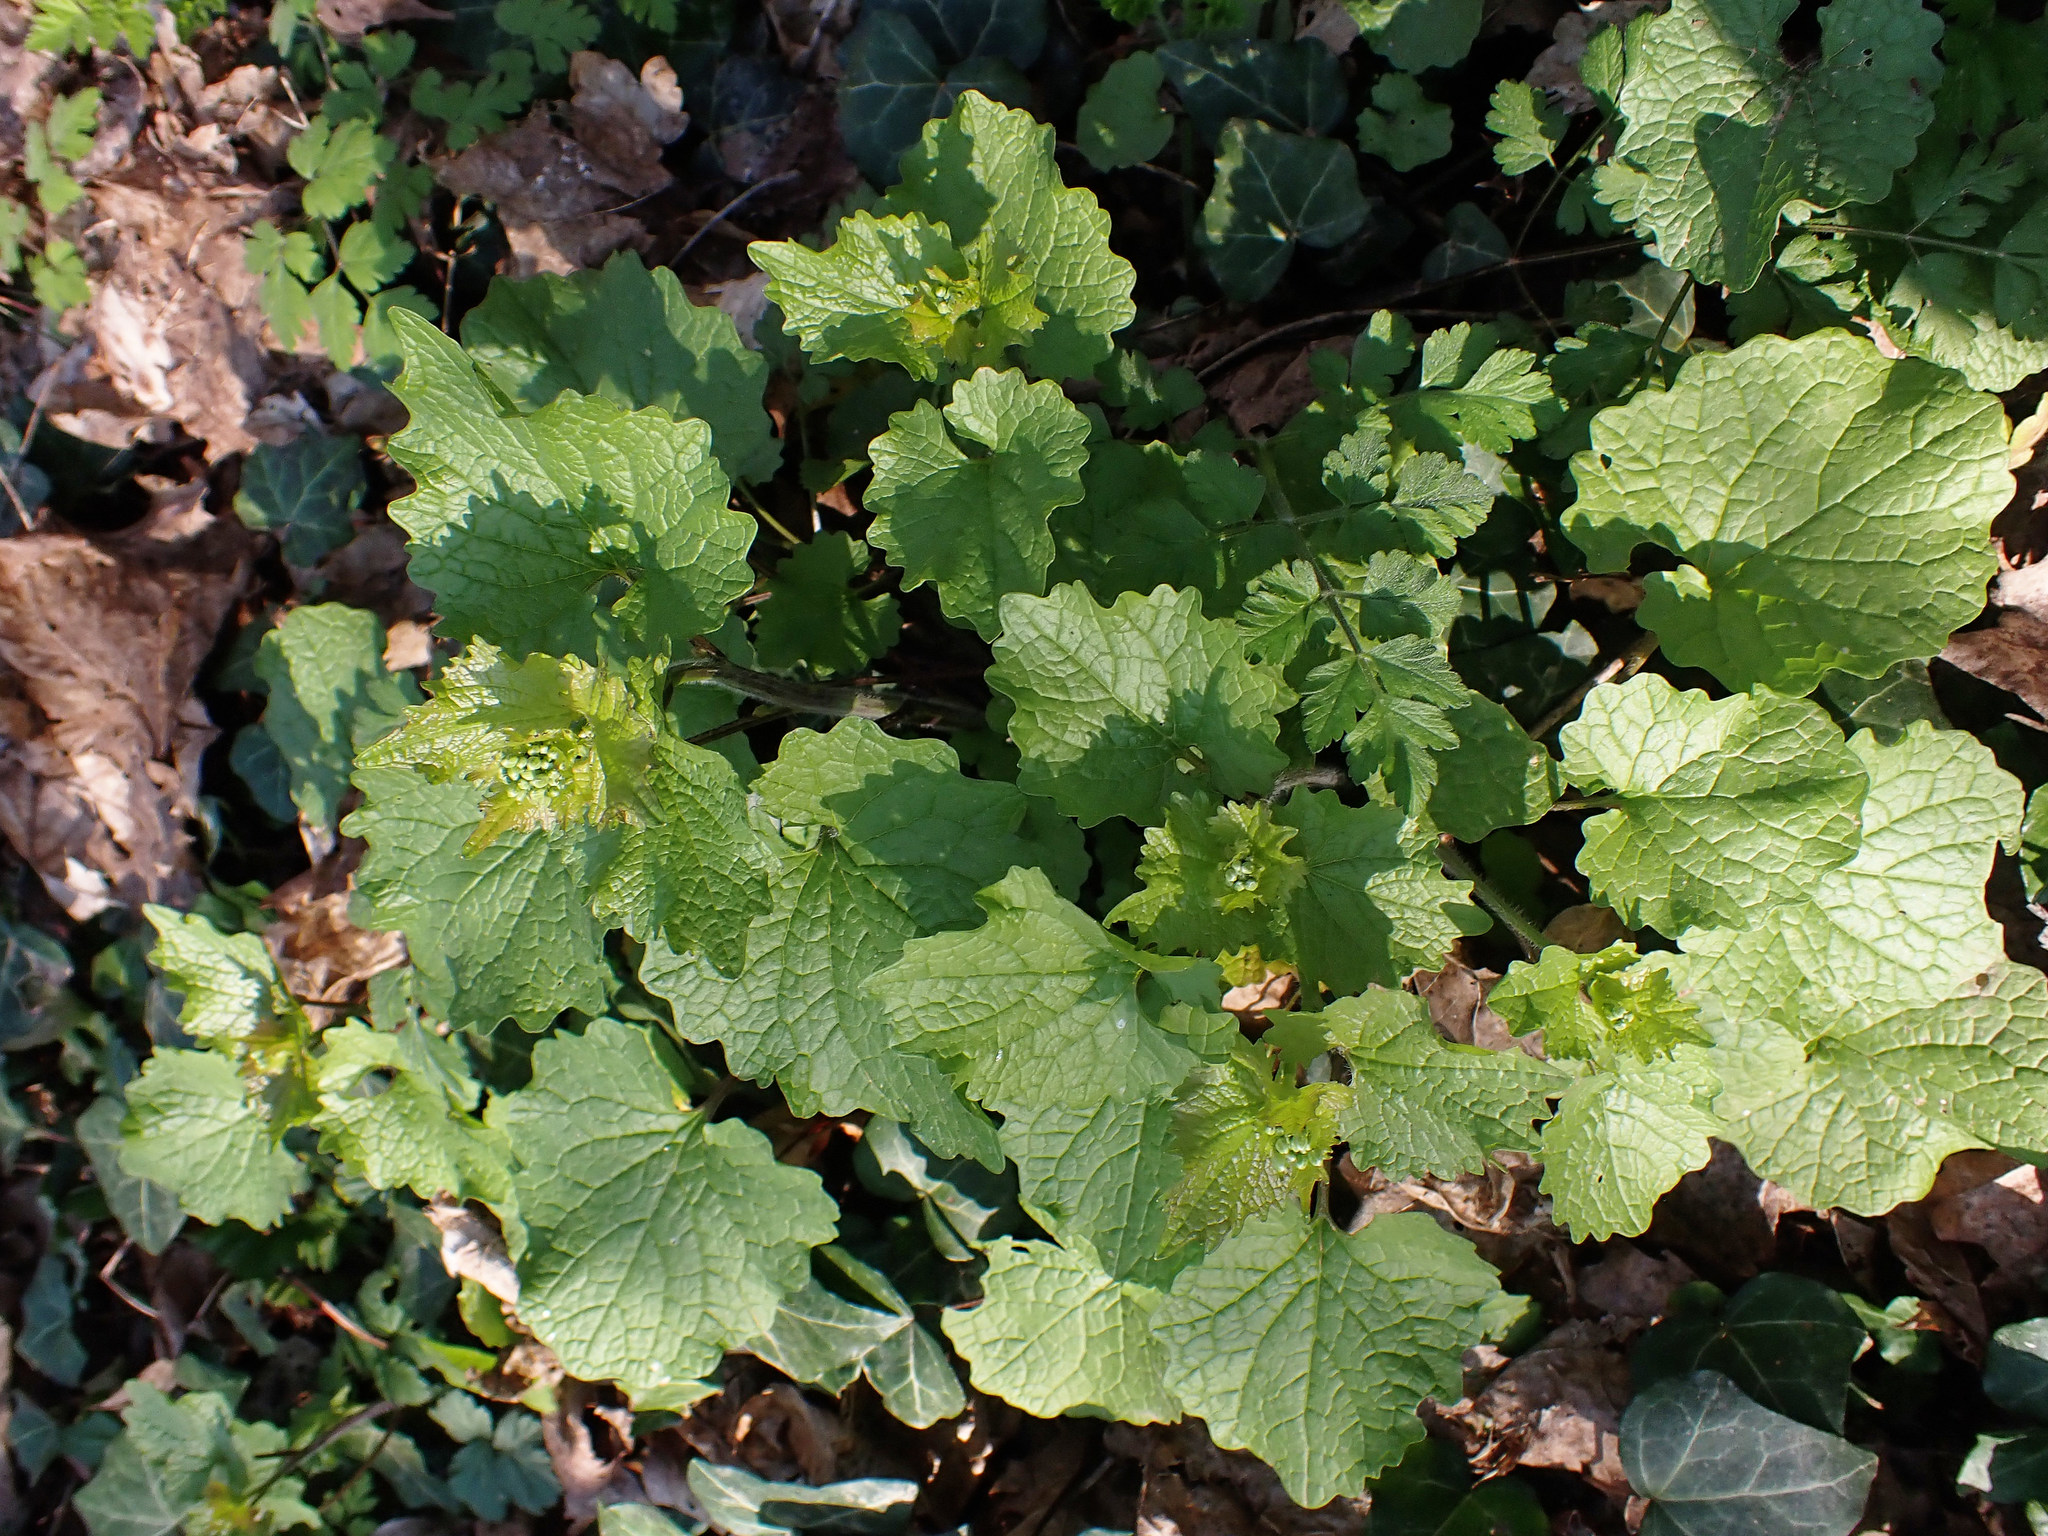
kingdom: Plantae
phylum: Tracheophyta
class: Magnoliopsida
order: Brassicales
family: Brassicaceae
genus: Alliaria
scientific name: Alliaria petiolata
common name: Garlic mustard
